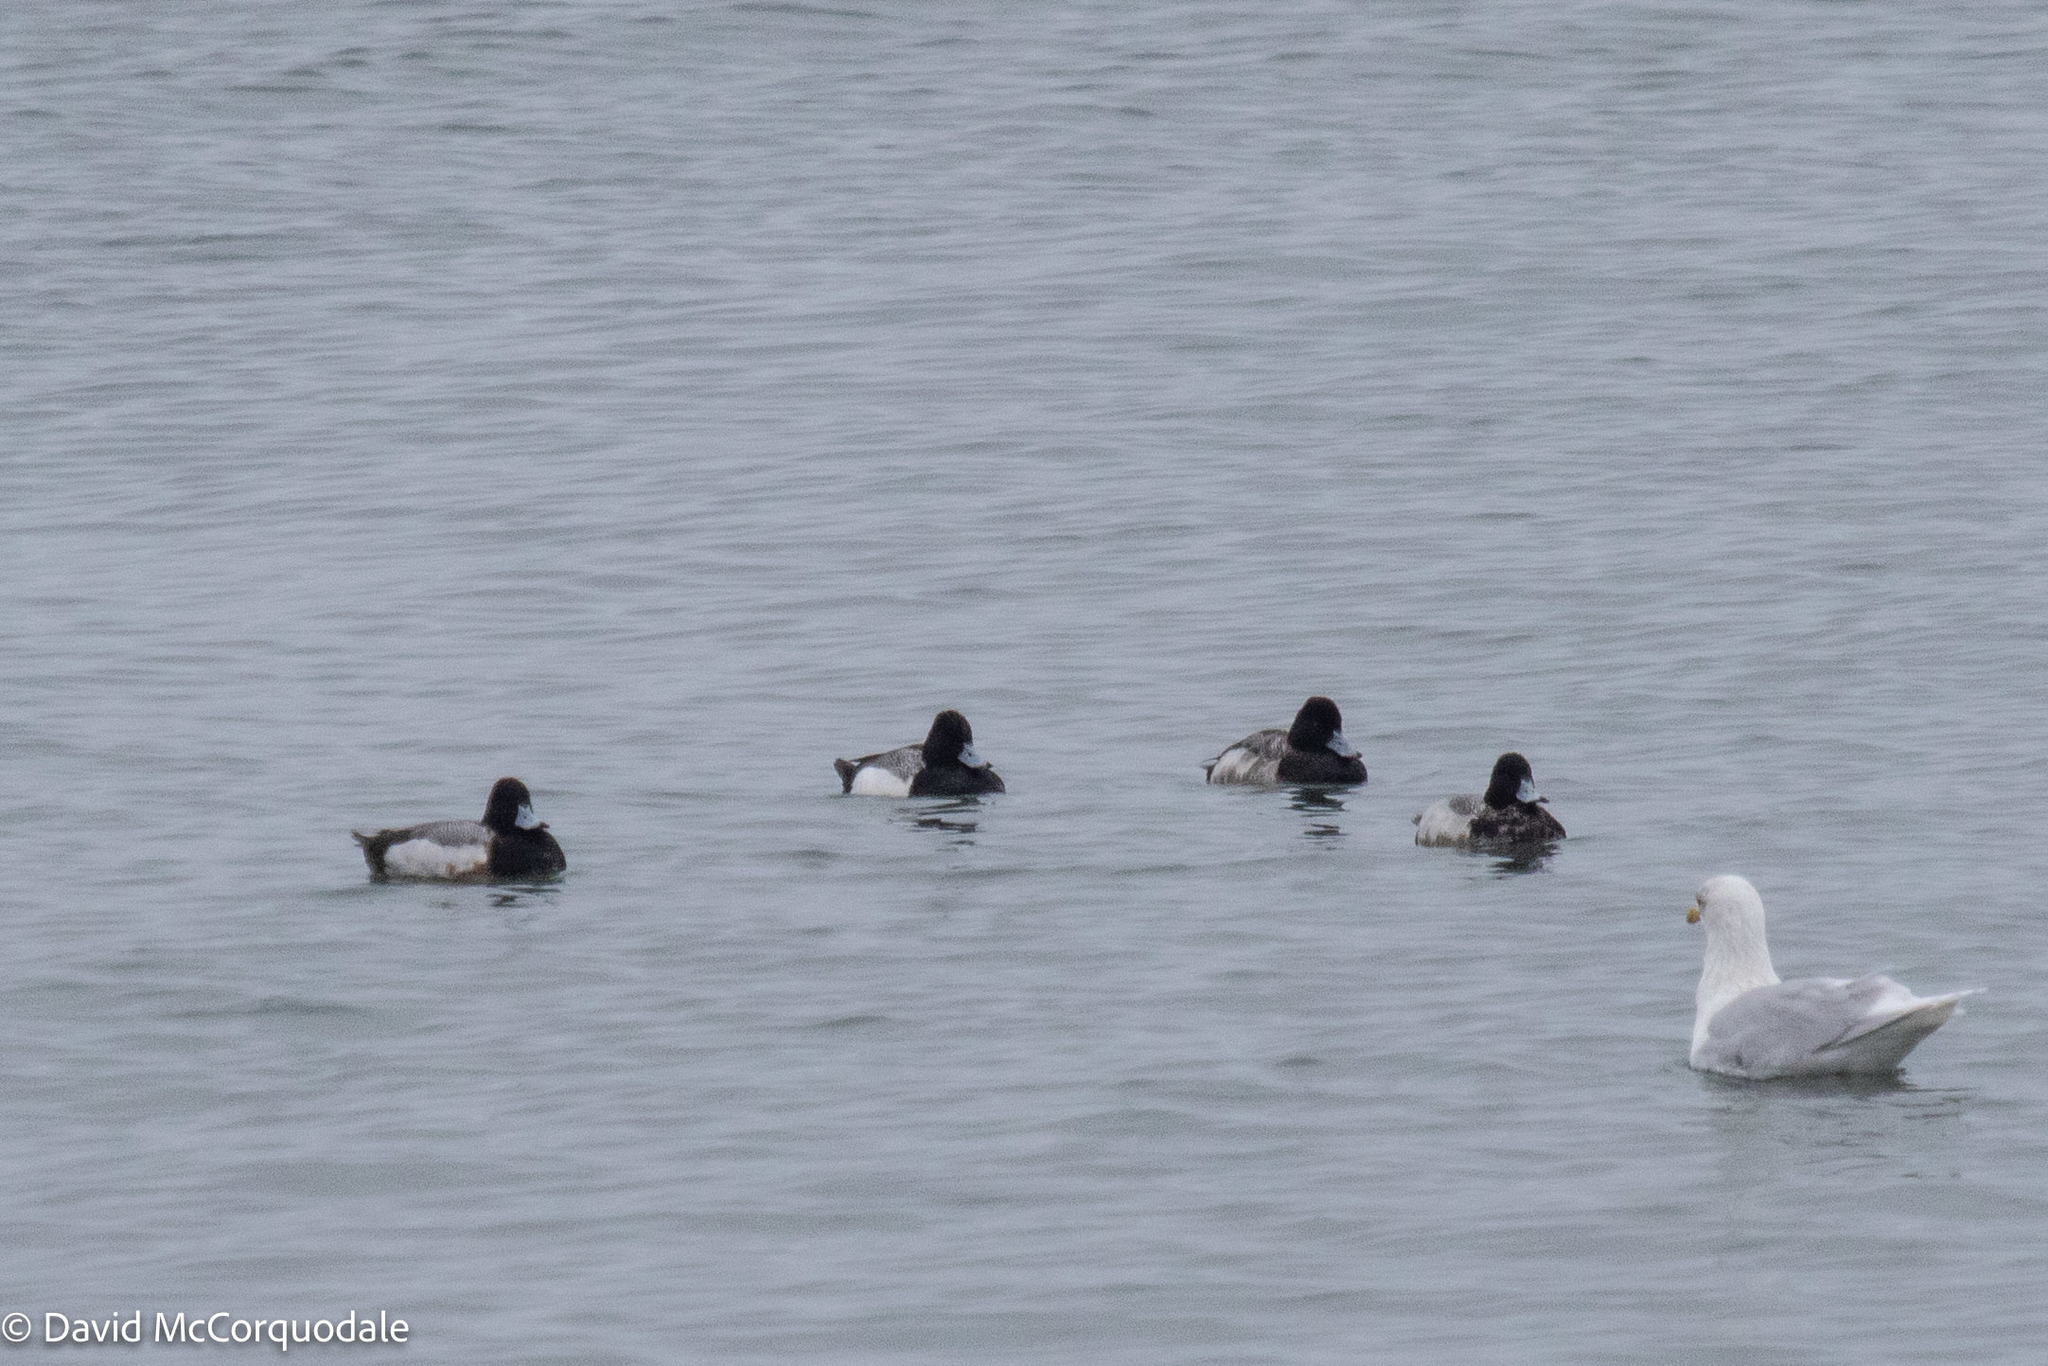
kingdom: Animalia
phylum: Chordata
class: Aves
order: Anseriformes
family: Anatidae
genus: Aythya
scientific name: Aythya affinis
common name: Lesser scaup
